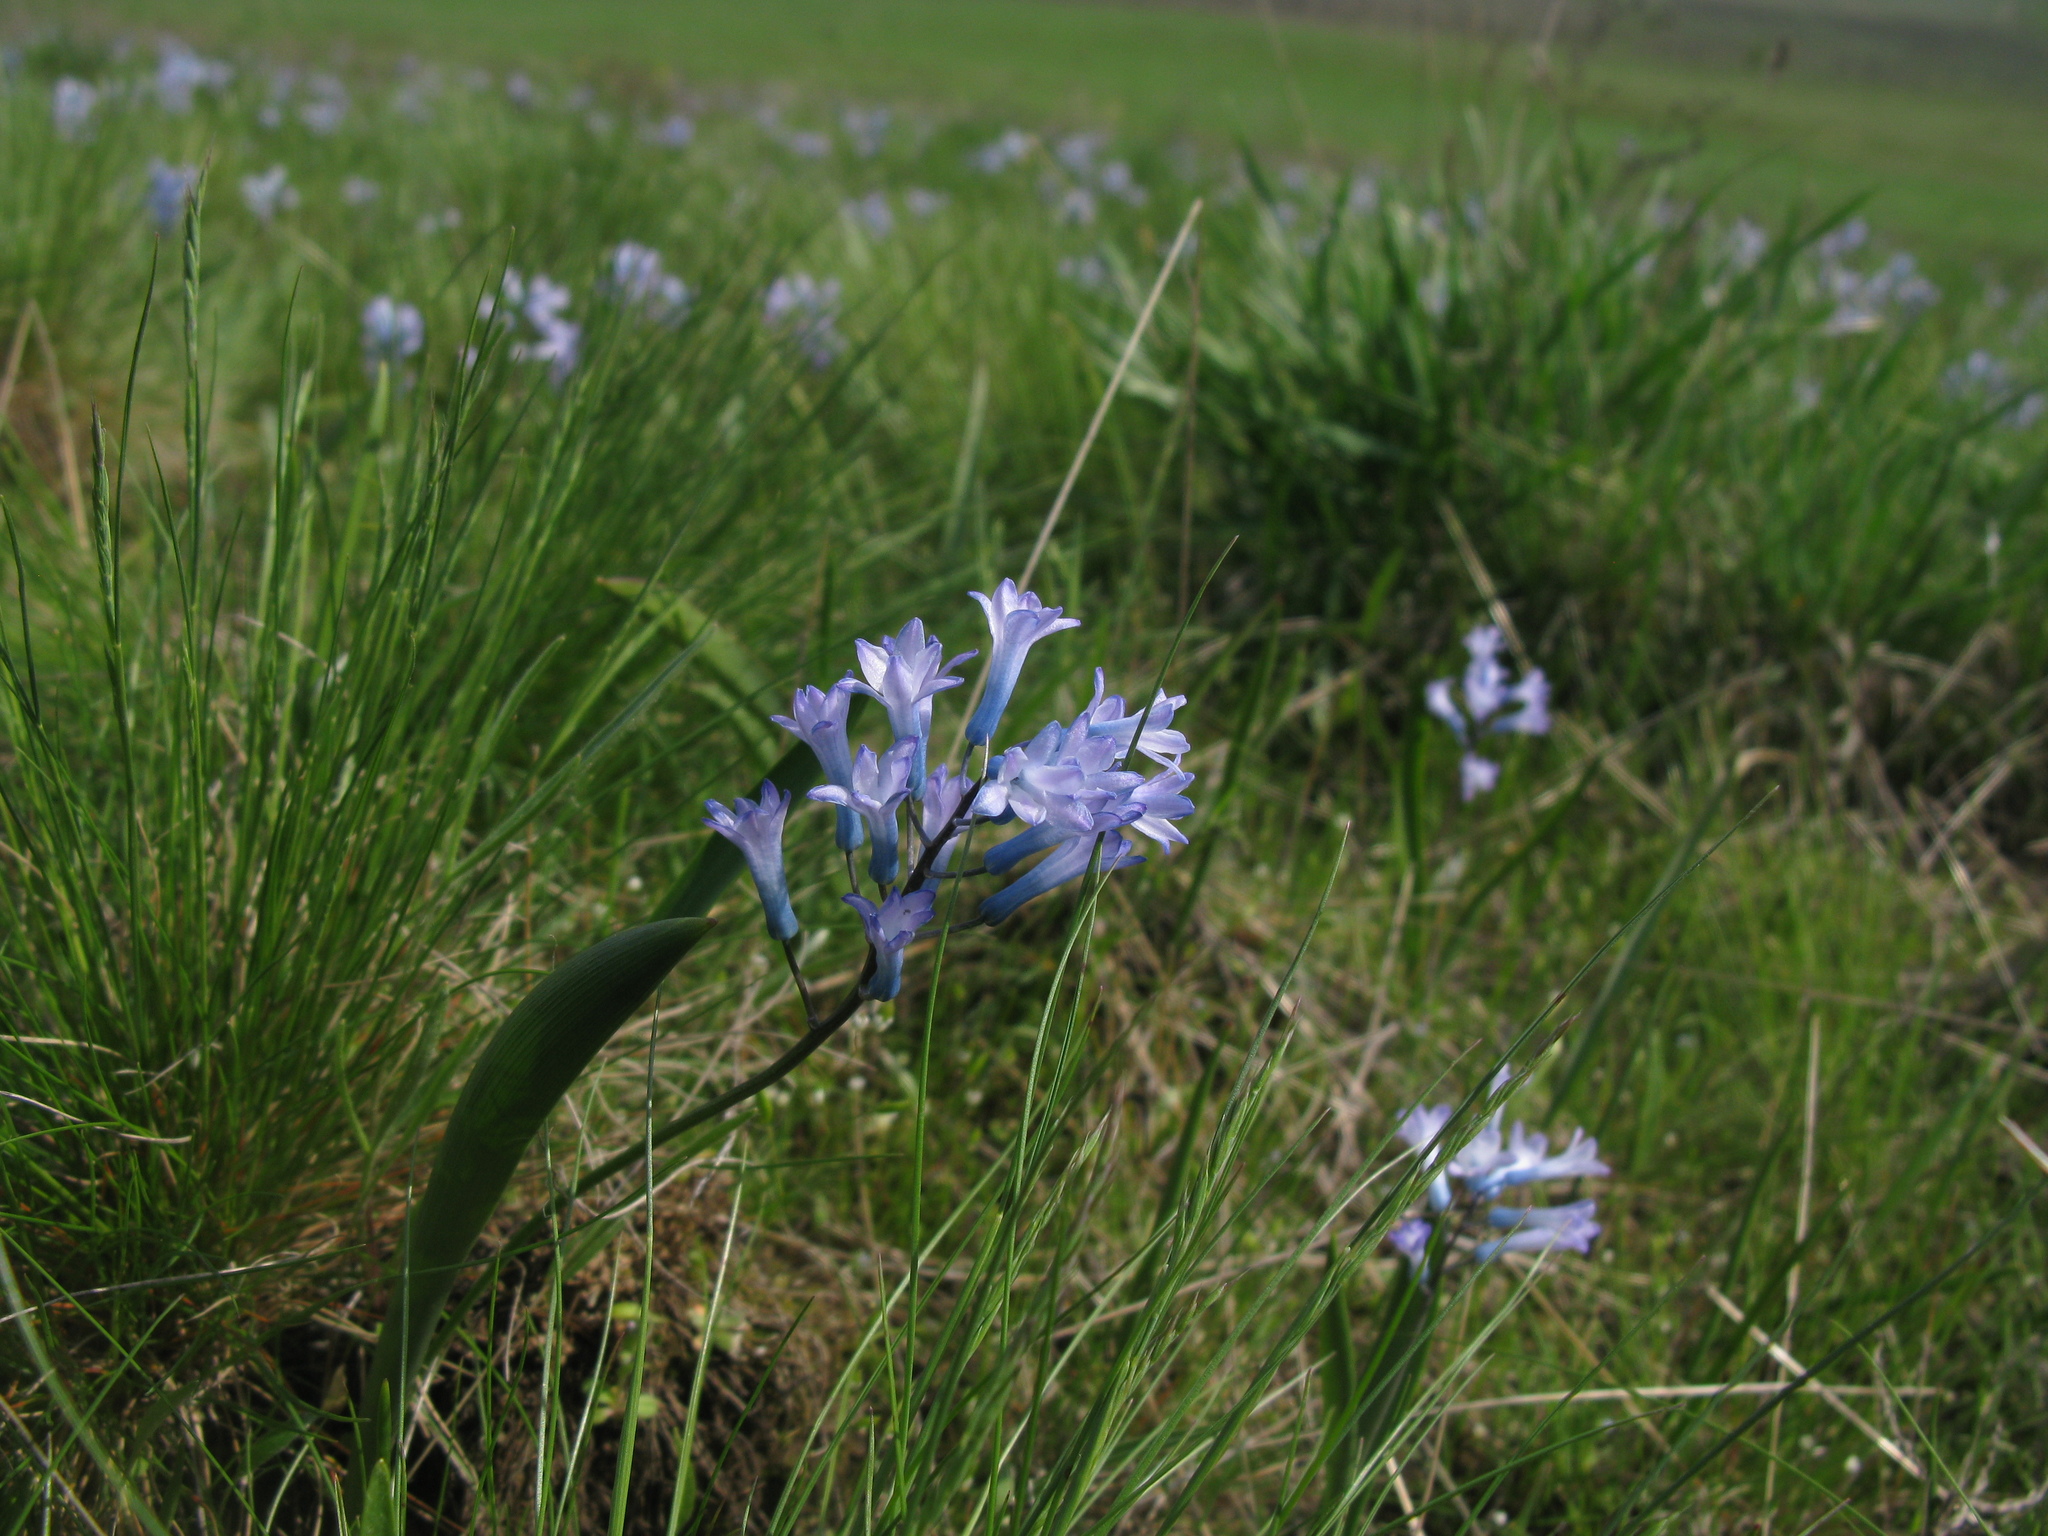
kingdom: Plantae
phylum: Tracheophyta
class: Liliopsida
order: Asparagales
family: Asparagaceae
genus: Hyacinthella
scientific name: Hyacinthella pallasiana
